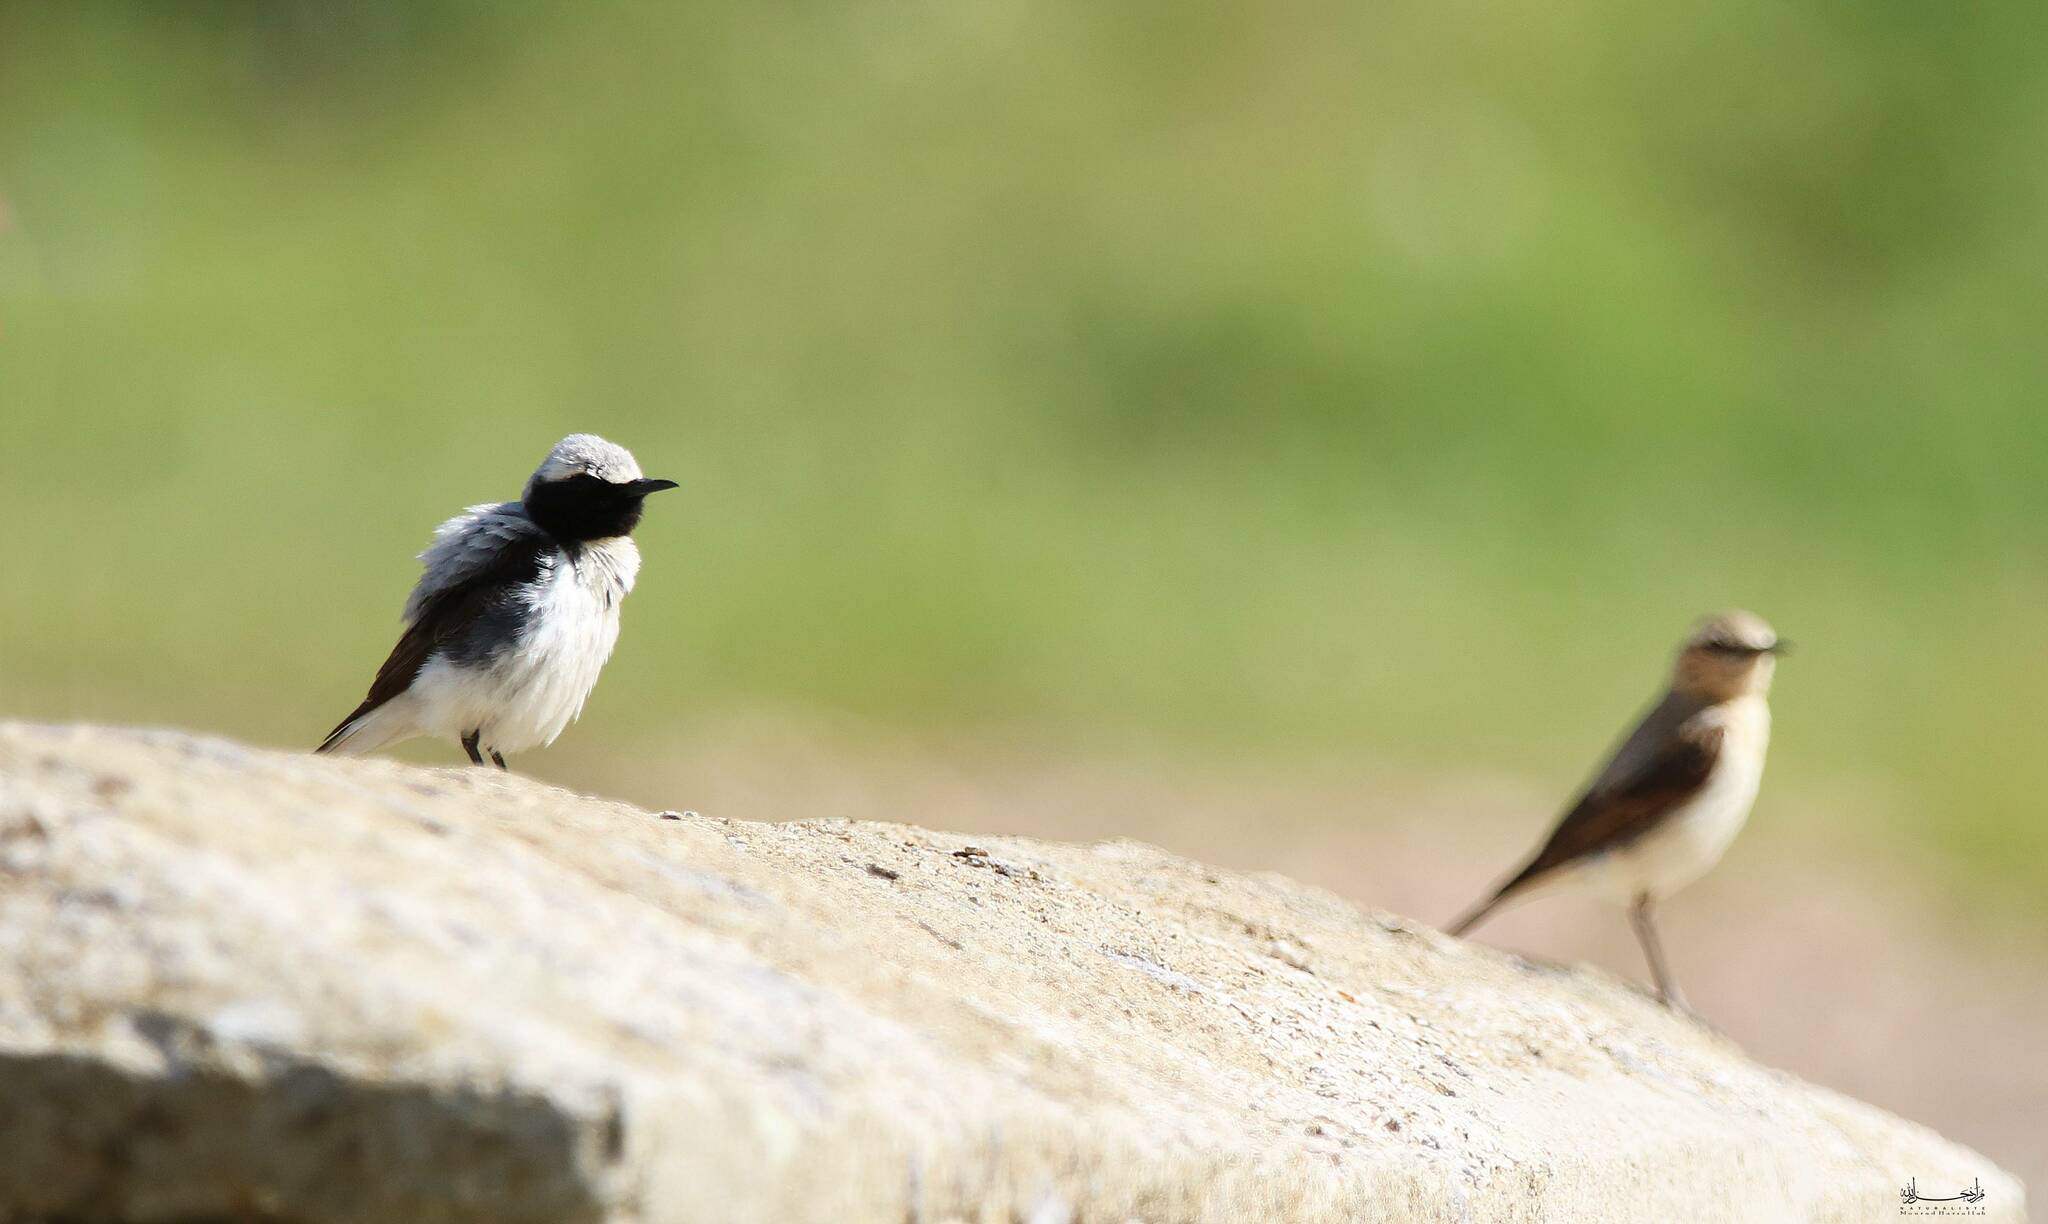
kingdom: Animalia
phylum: Chordata
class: Aves
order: Passeriformes
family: Muscicapidae
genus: Oenanthe
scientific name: Oenanthe oenanthe
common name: Northern wheatear
